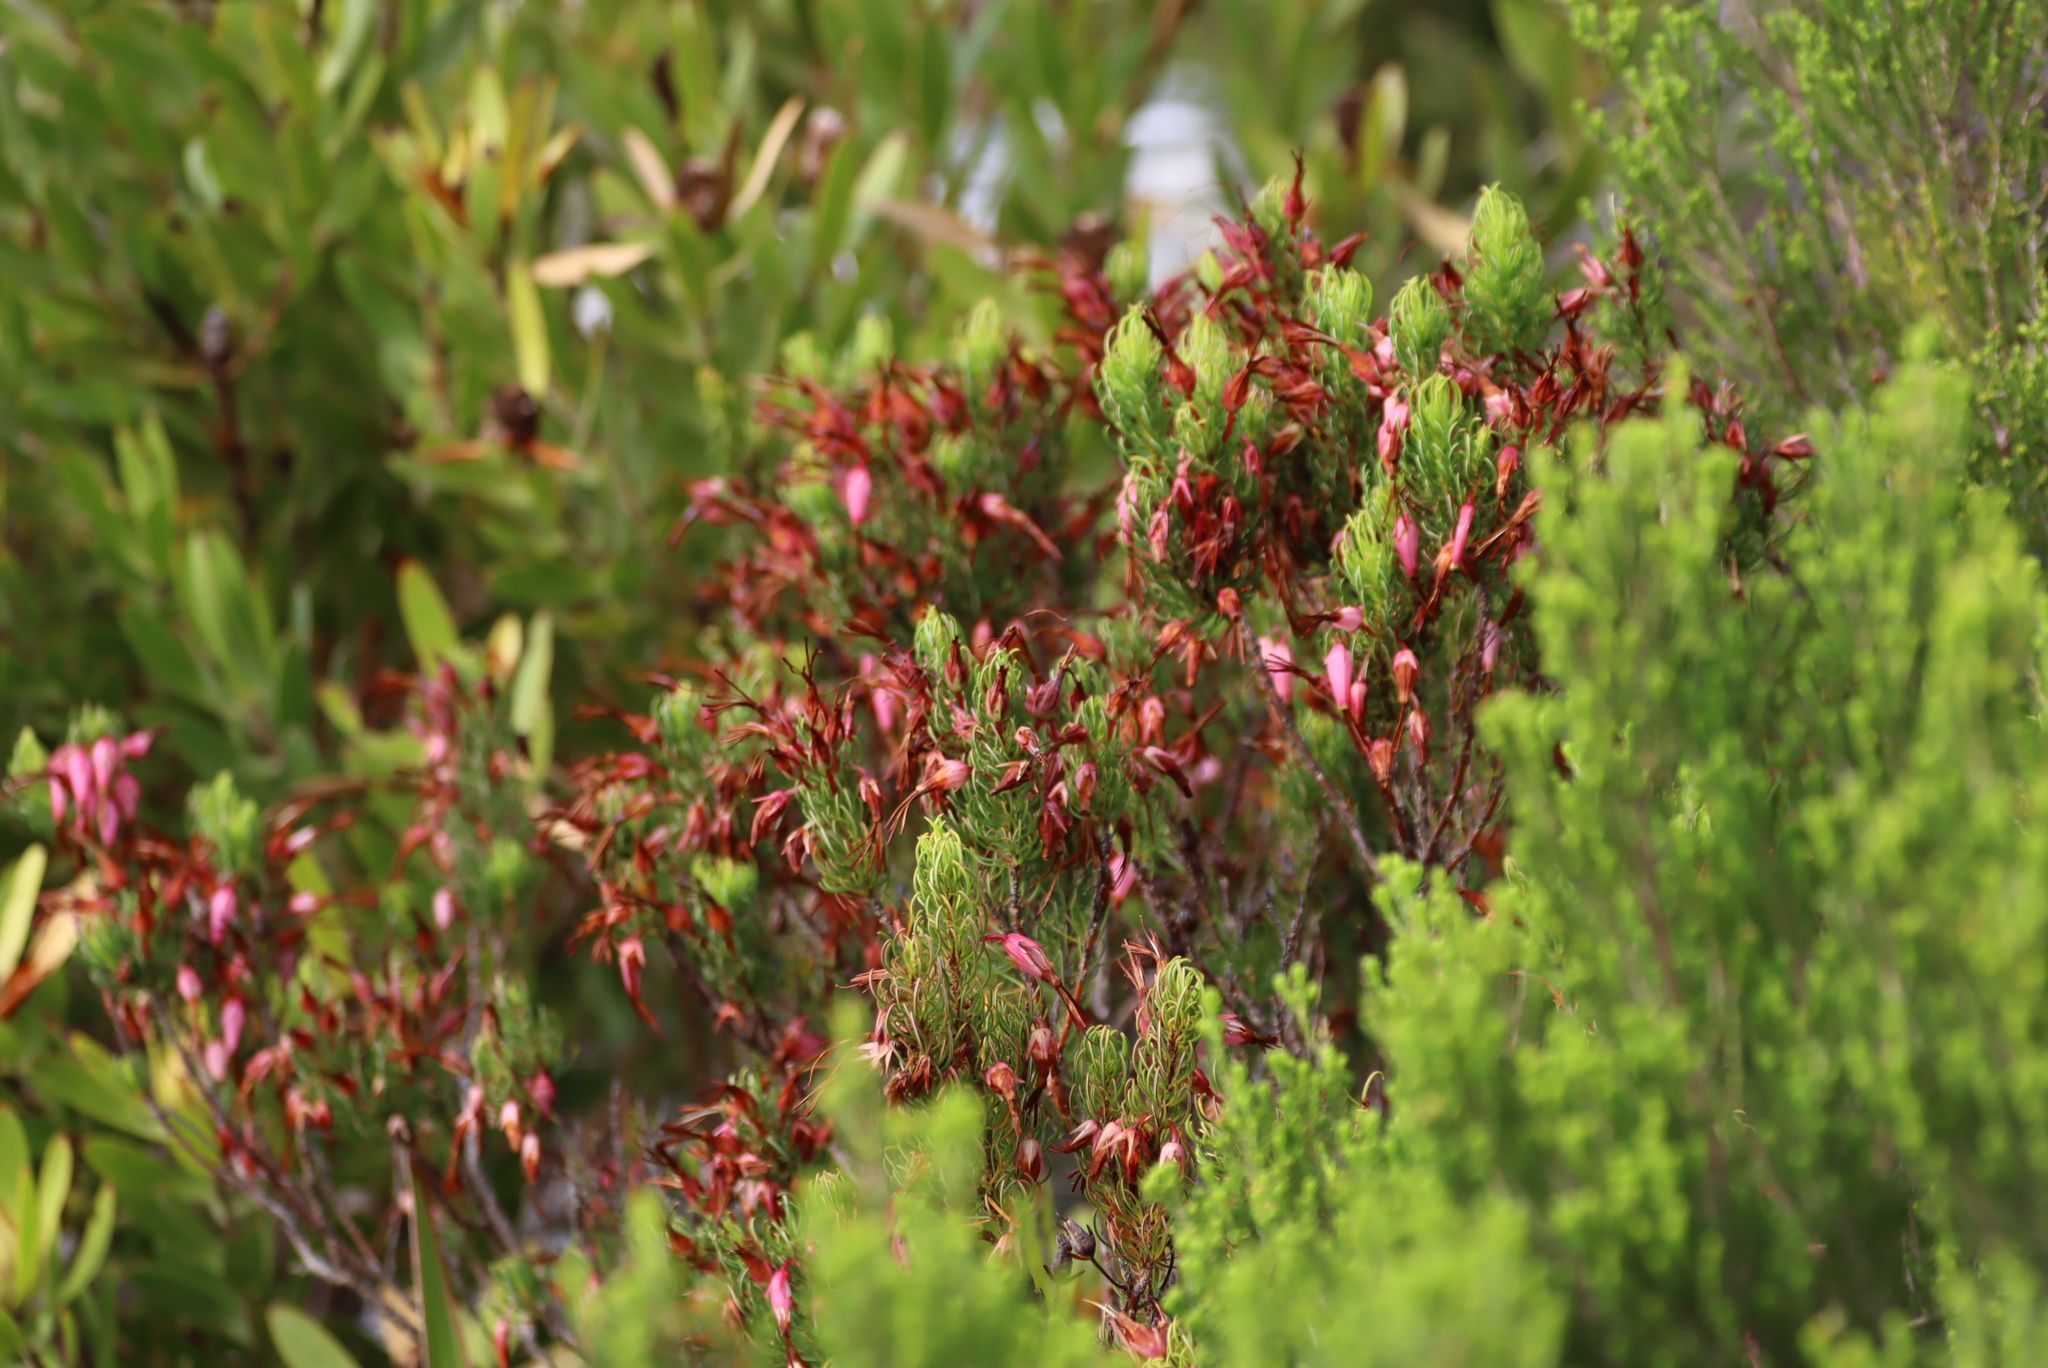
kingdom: Plantae
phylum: Tracheophyta
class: Magnoliopsida
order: Ericales
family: Ericaceae
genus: Erica
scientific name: Erica plukenetii
